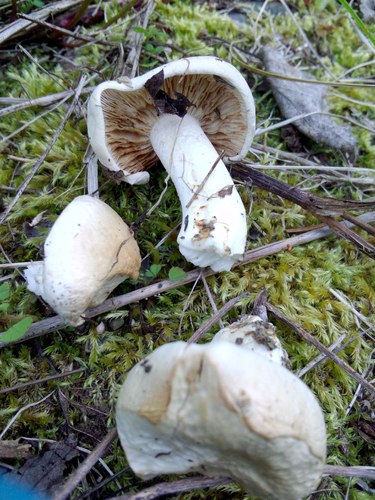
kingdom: Fungi
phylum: Basidiomycota
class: Agaricomycetes
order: Agaricales
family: Hymenogastraceae
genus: Hebeloma
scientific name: Hebeloma crustuliniforme
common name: Poison pie
